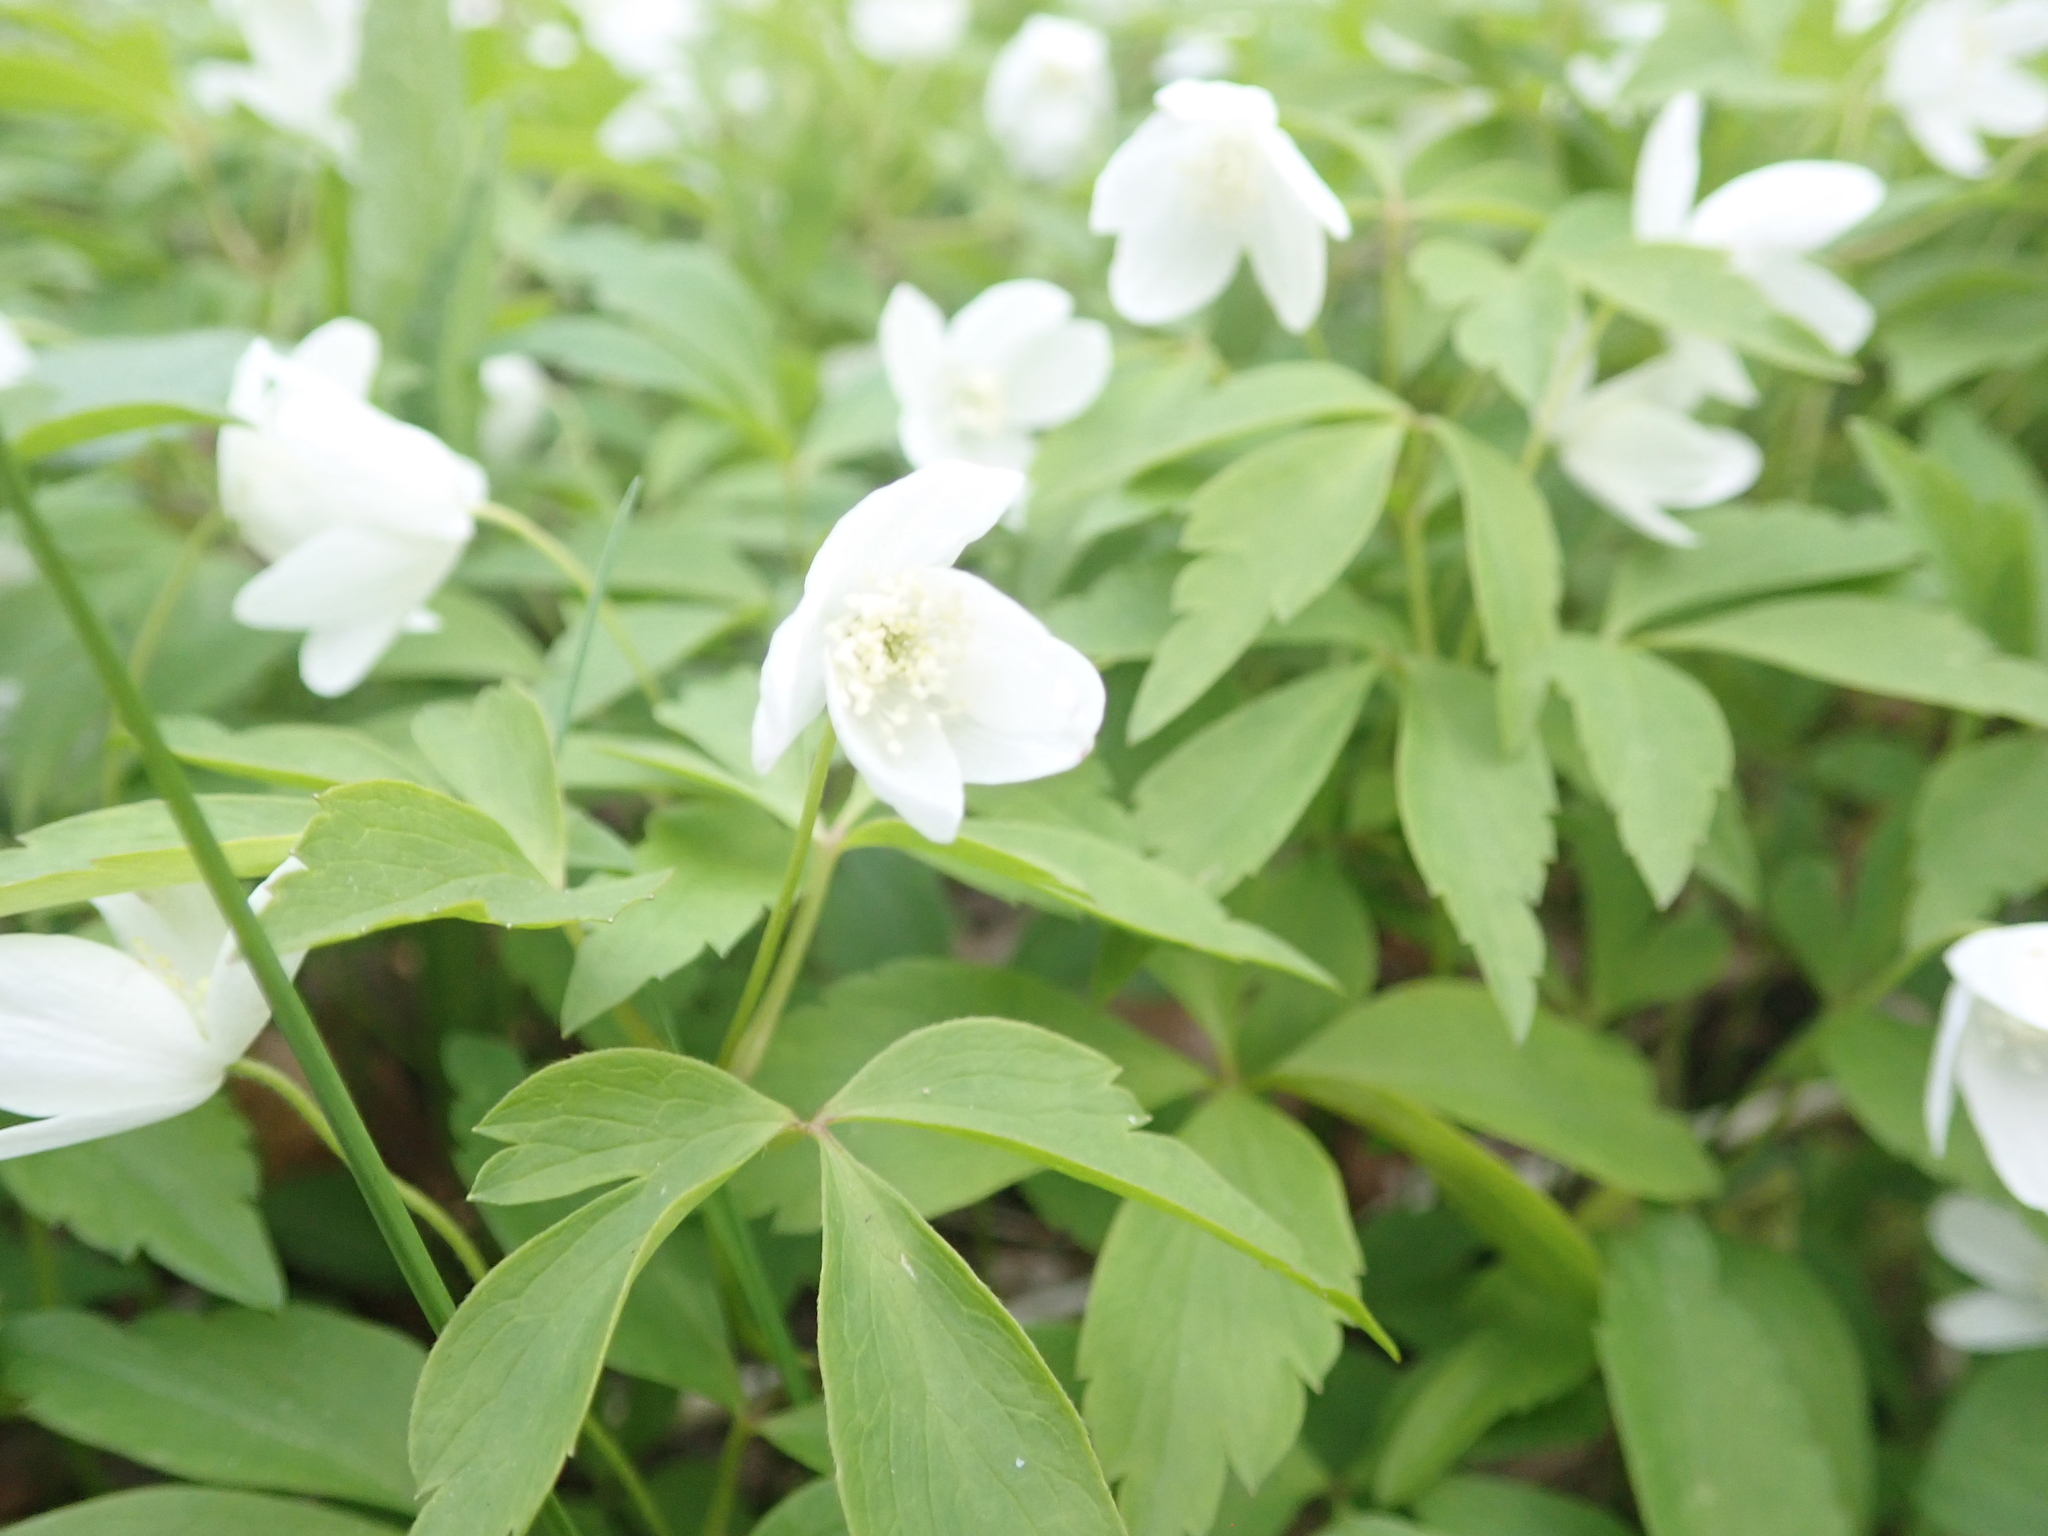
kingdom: Plantae
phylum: Tracheophyta
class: Magnoliopsida
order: Ranunculales
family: Ranunculaceae
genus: Anemone
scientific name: Anemone quinquefolia
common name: Wood anemone
